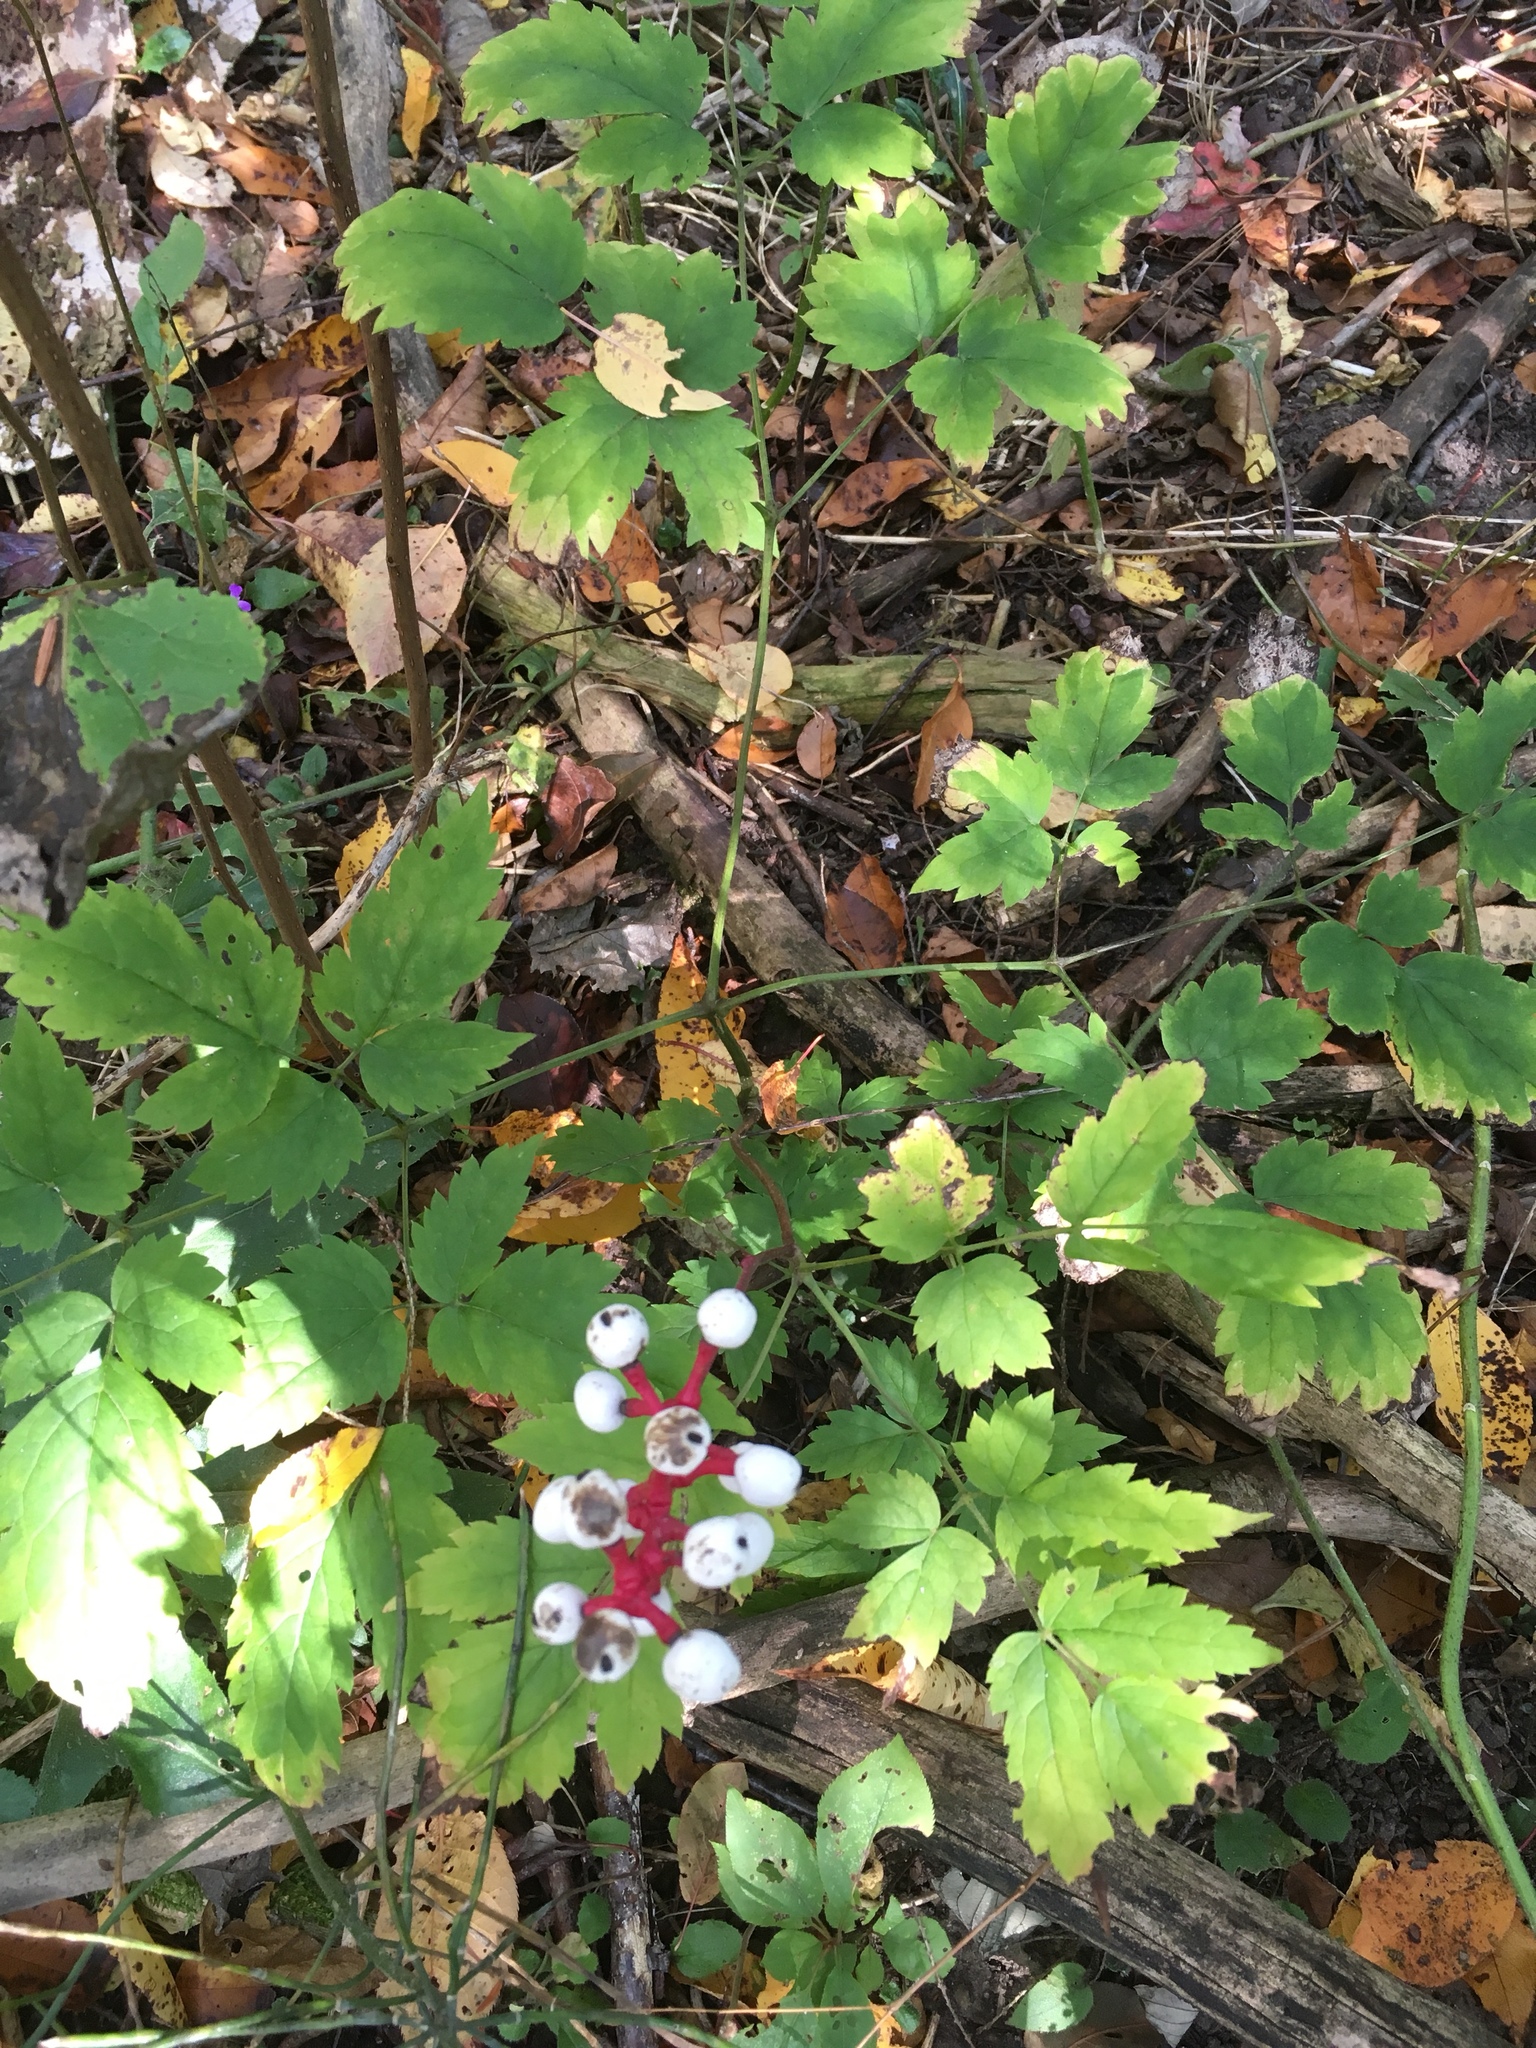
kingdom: Plantae
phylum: Tracheophyta
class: Magnoliopsida
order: Ranunculales
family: Ranunculaceae
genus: Actaea
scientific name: Actaea pachypoda
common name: Doll's-eyes
